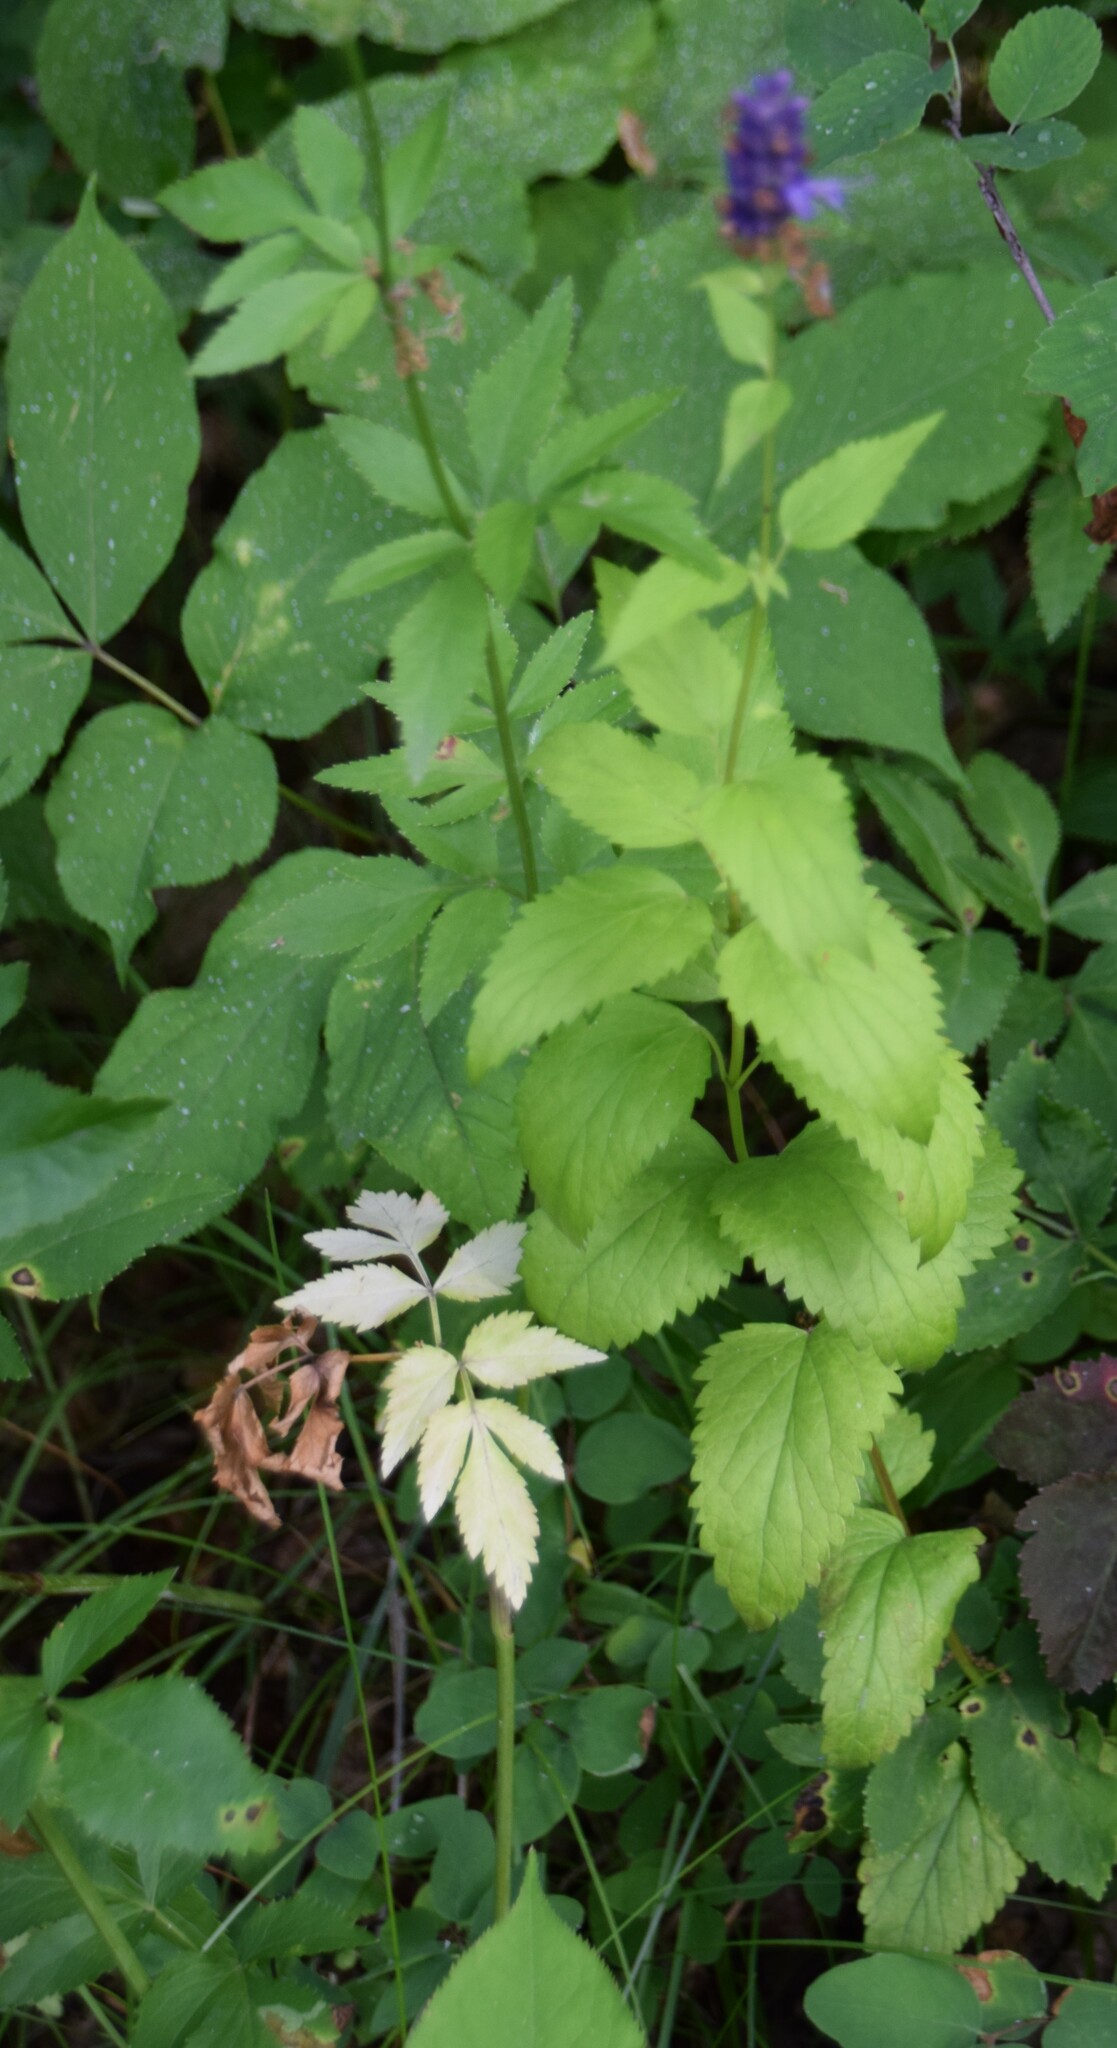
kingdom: Plantae
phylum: Tracheophyta
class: Magnoliopsida
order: Lamiales
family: Lamiaceae
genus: Agastache
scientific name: Agastache foeniculum
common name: Anise hyssop
